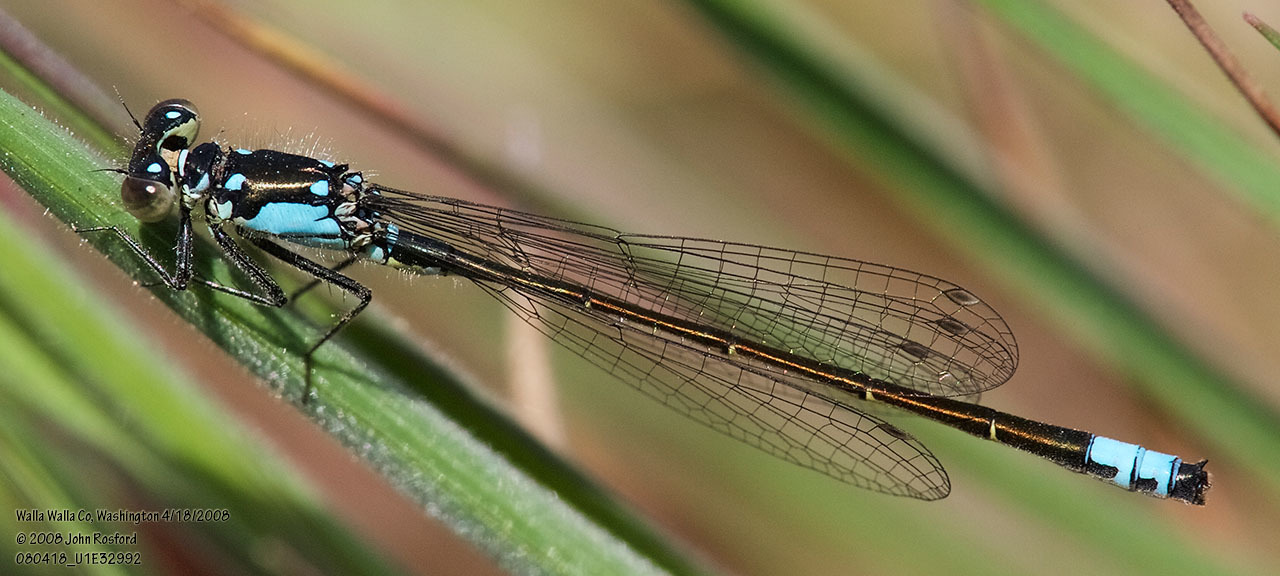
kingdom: Animalia
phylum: Arthropoda
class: Insecta
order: Odonata
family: Coenagrionidae
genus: Ischnura
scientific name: Ischnura cervula
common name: Pacific forktail
